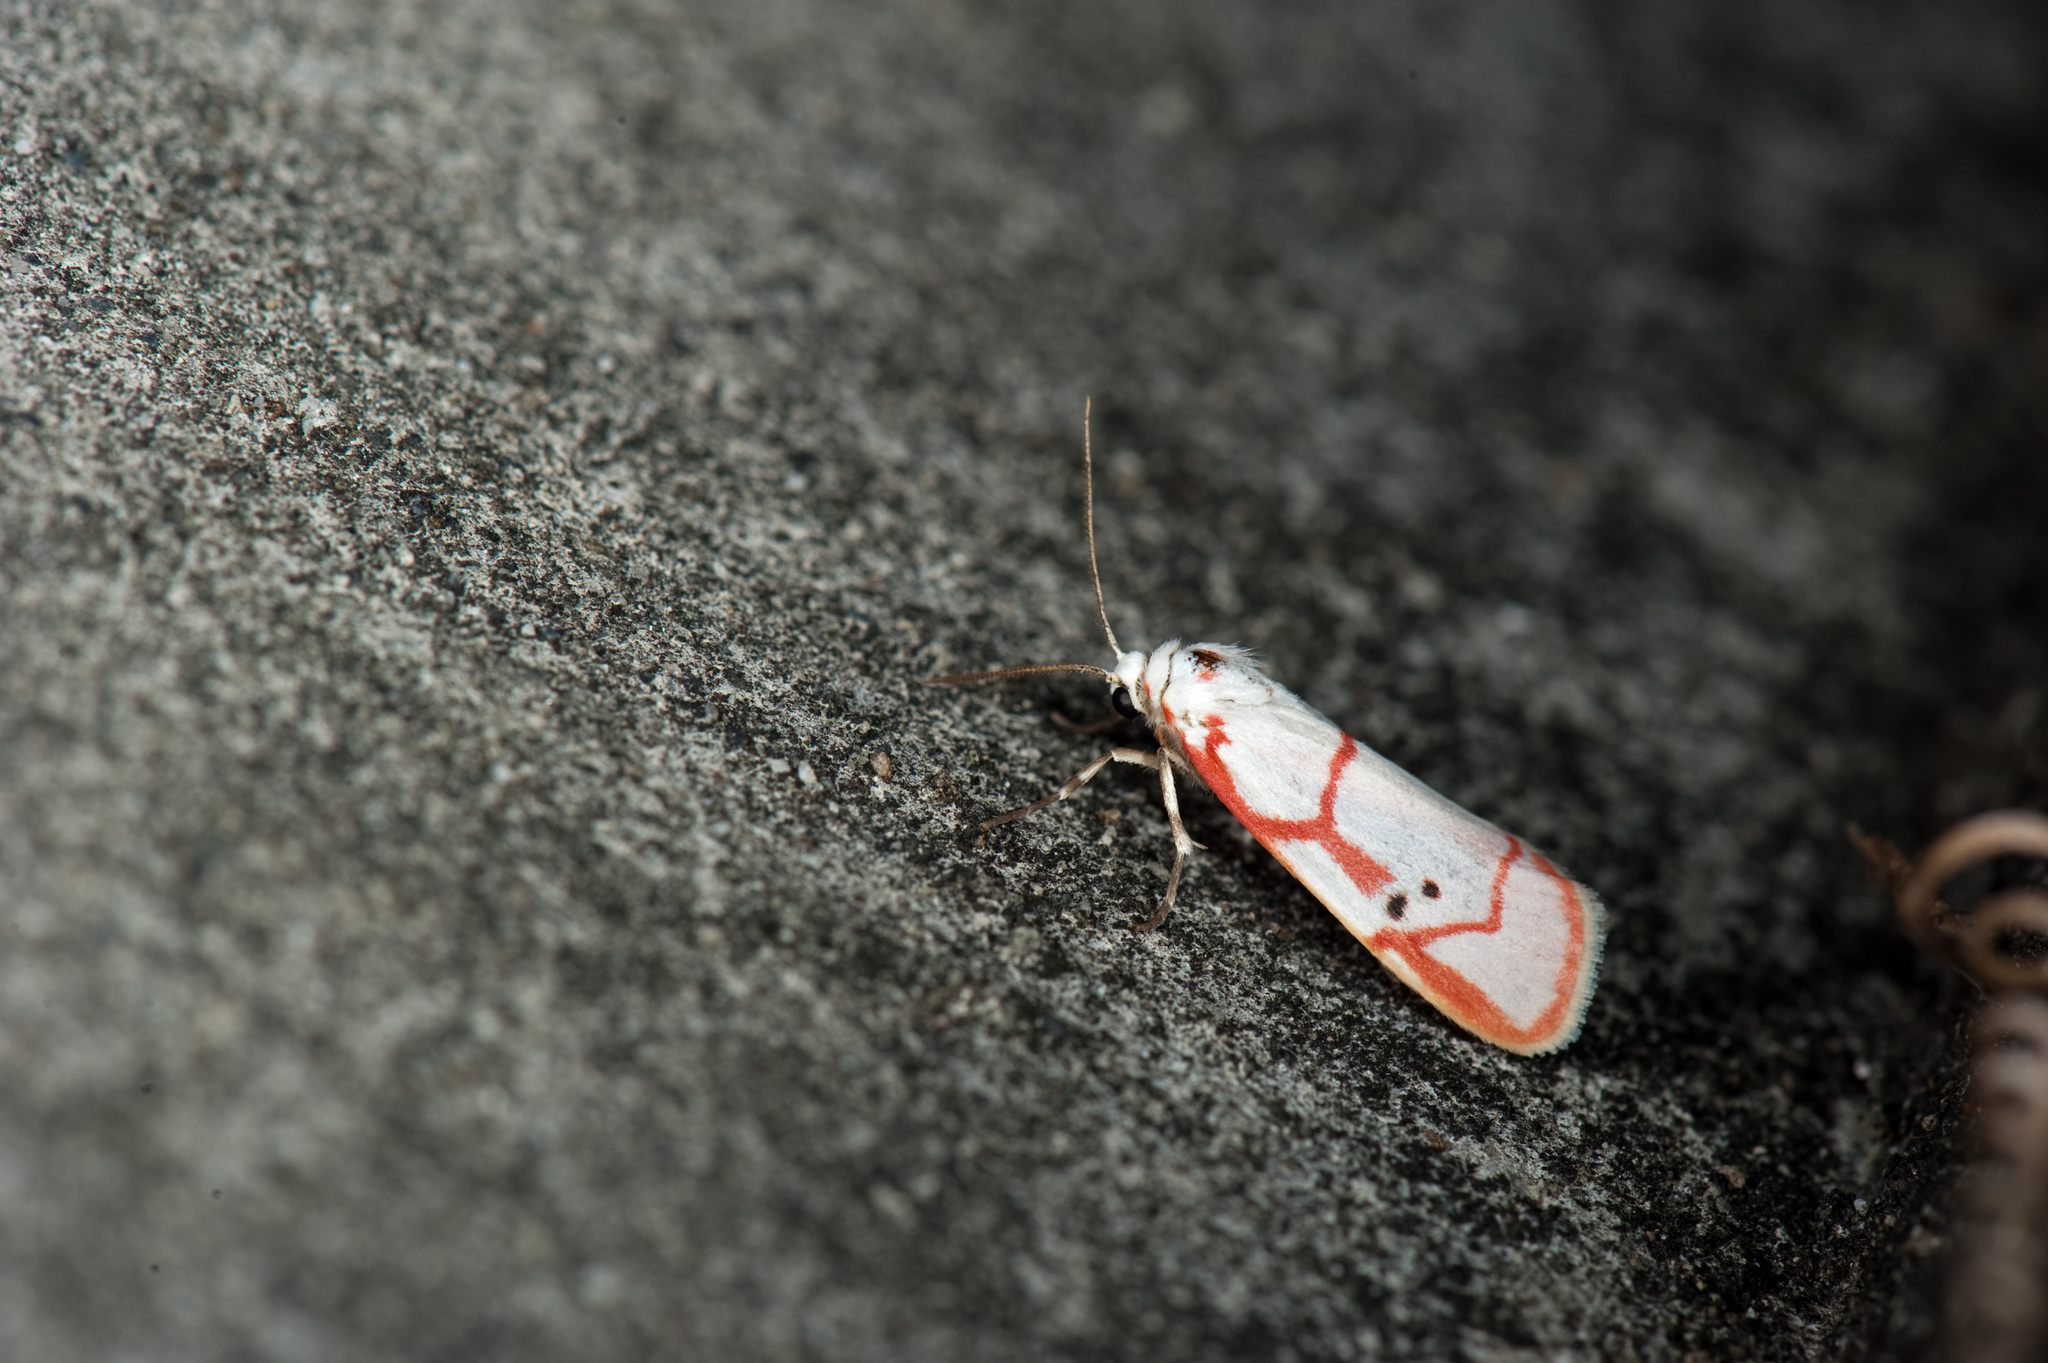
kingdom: Animalia
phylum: Arthropoda
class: Insecta
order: Lepidoptera
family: Erebidae
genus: Cyana
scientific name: Cyana sanguinea
